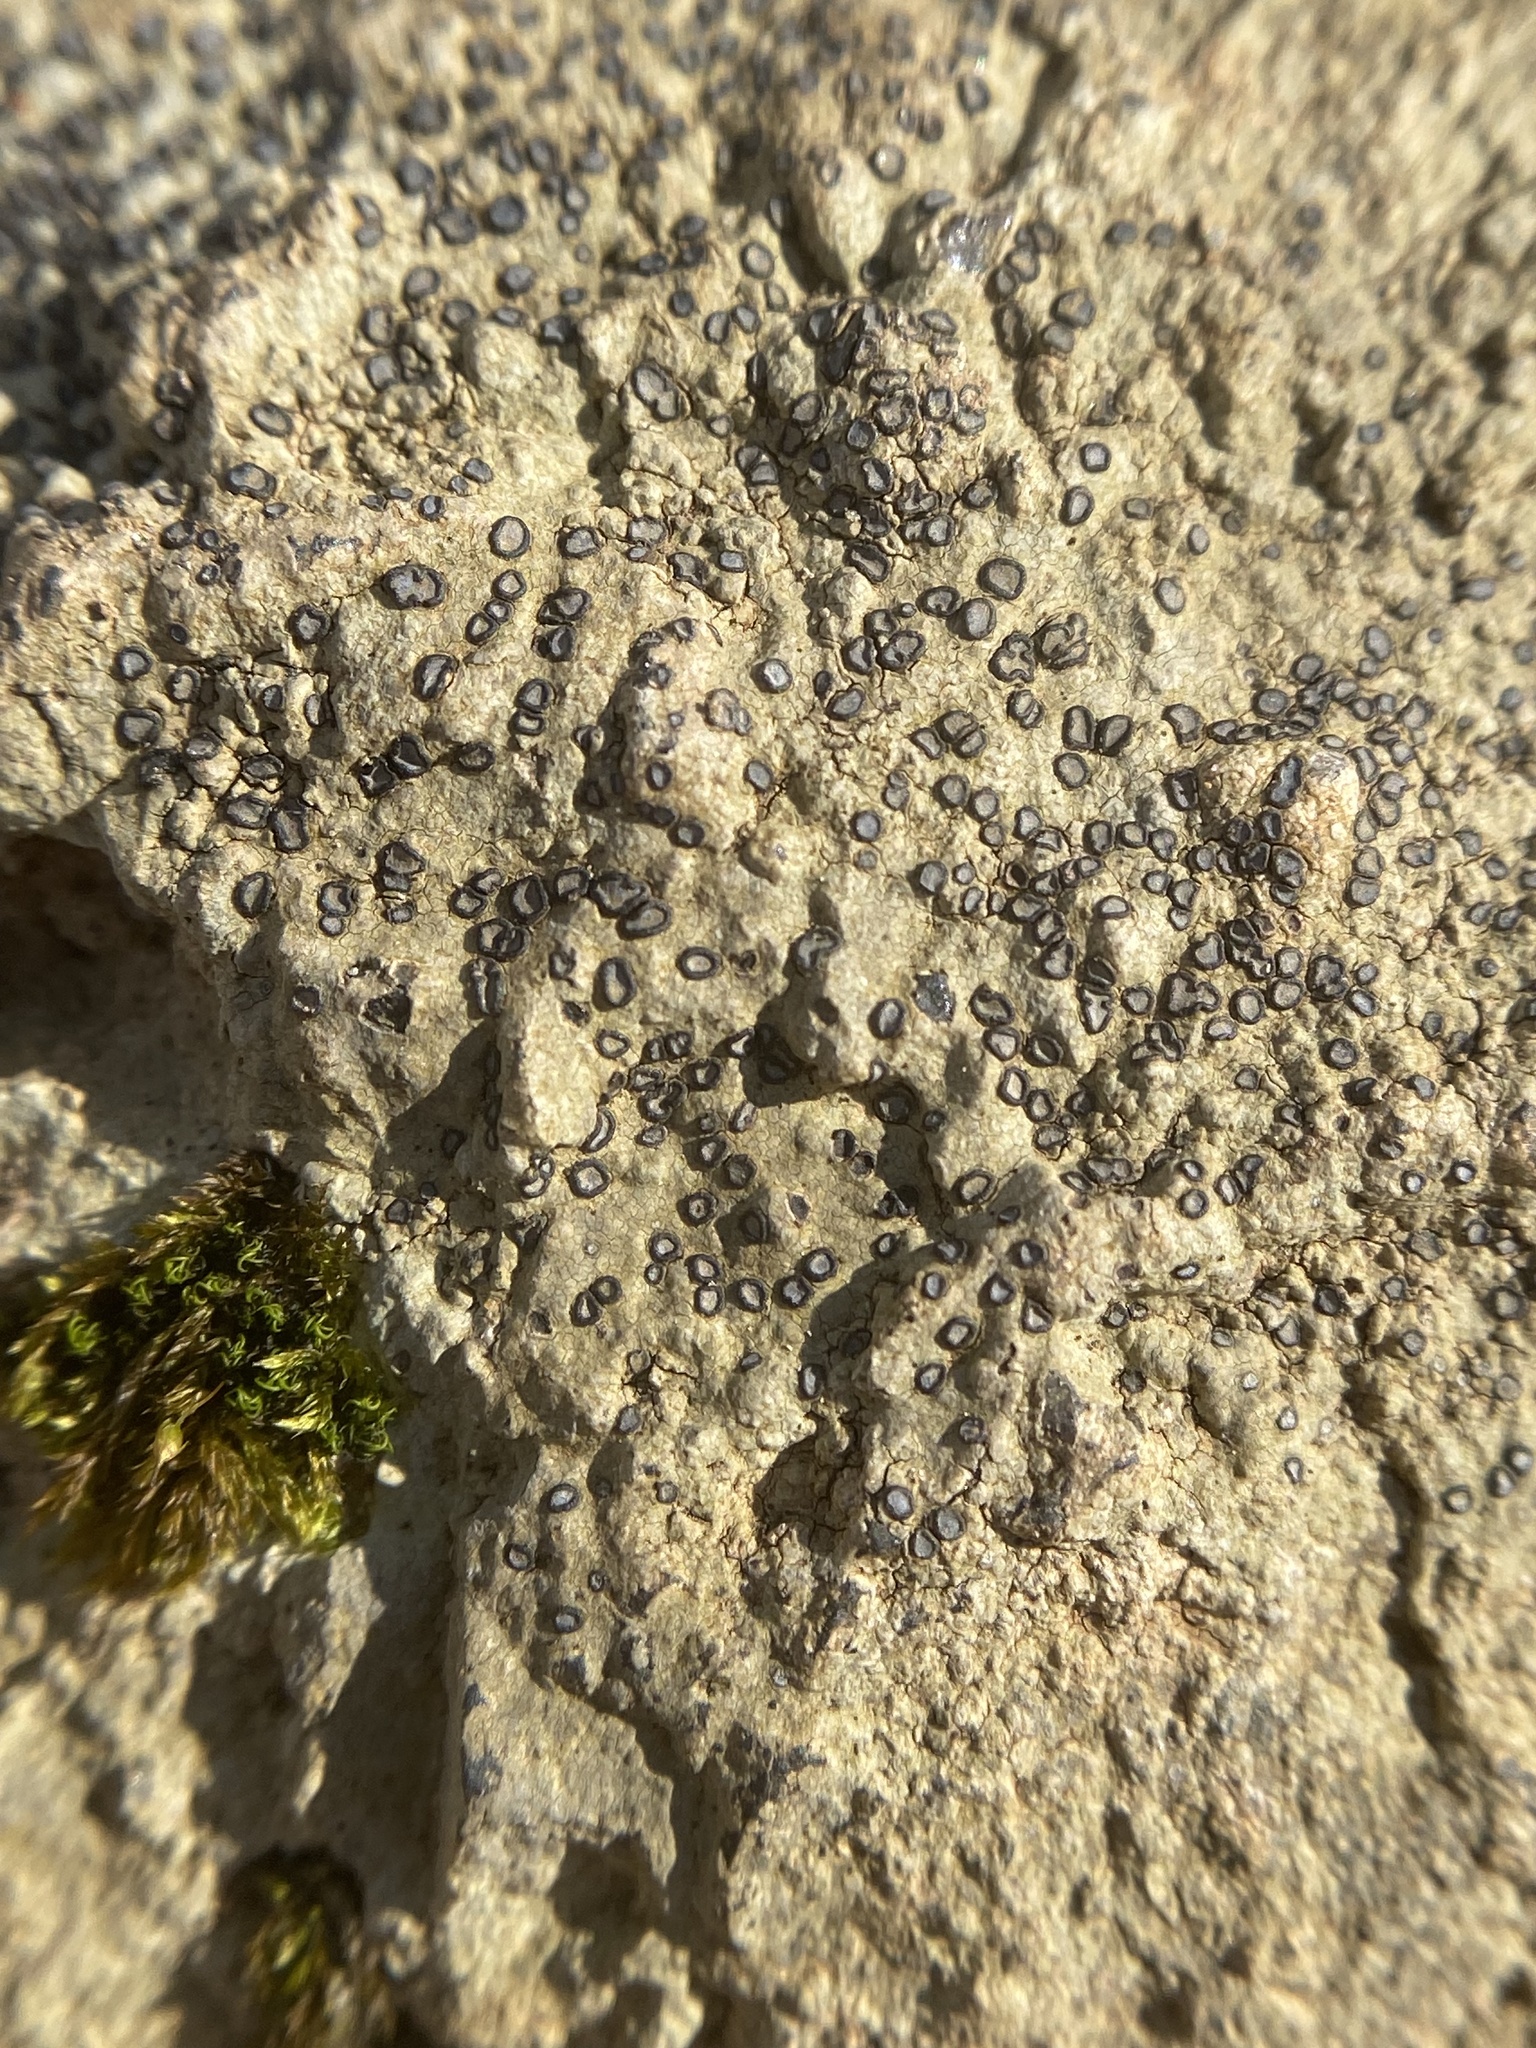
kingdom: Fungi
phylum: Ascomycota
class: Lecanoromycetes
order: Lecideales
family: Lecideaceae
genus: Porpidia
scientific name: Porpidia albocaerulescens
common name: Smokey-eyed boulder lichen
